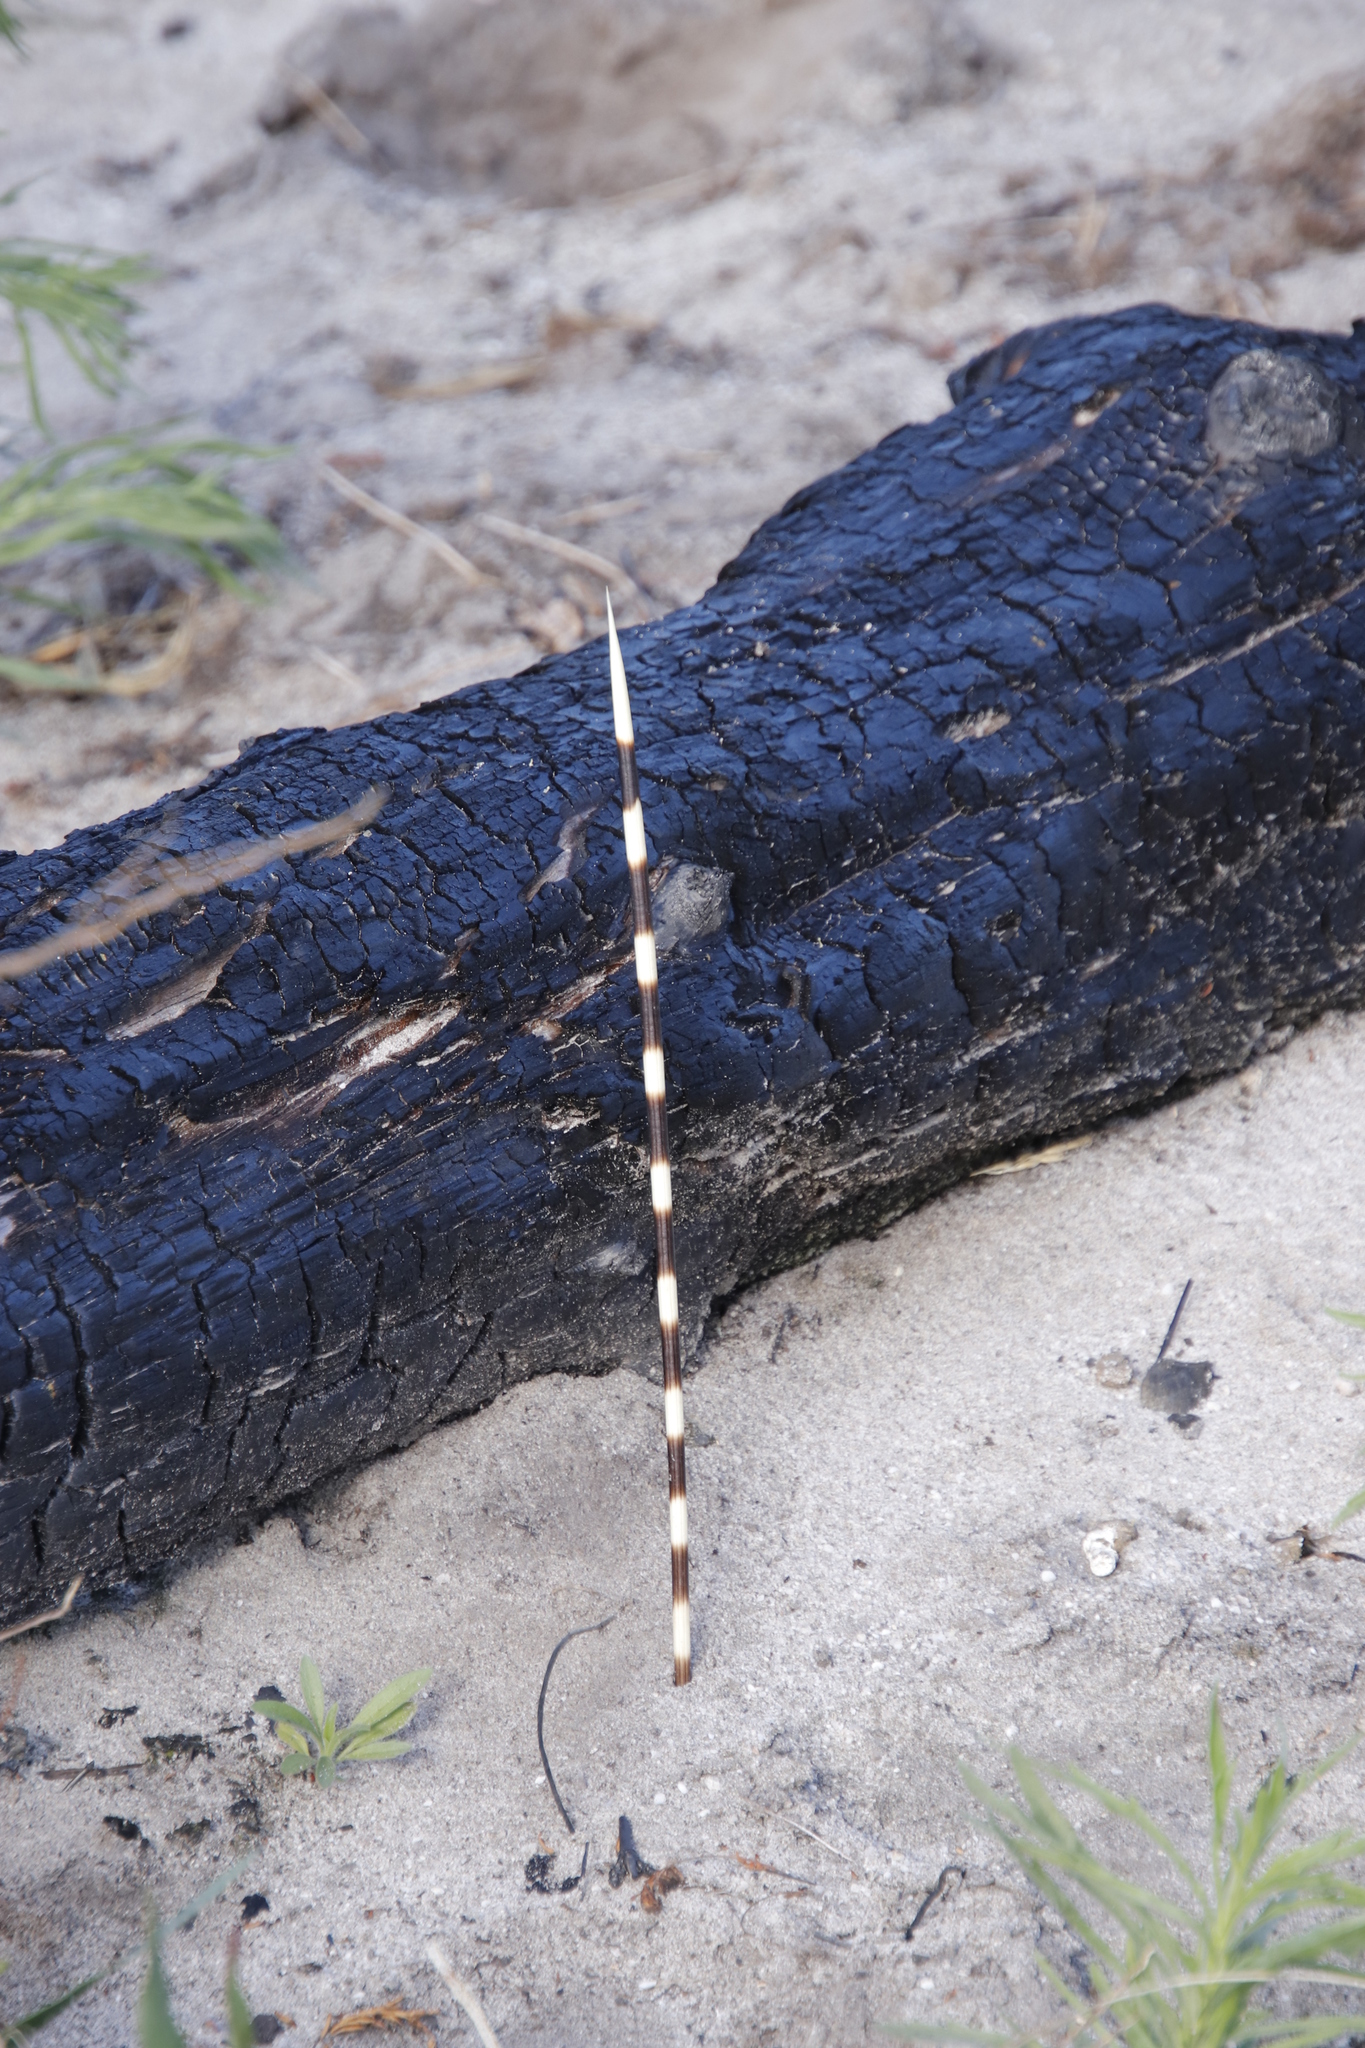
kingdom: Animalia
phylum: Chordata
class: Mammalia
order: Rodentia
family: Hystricidae
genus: Hystrix
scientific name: Hystrix africaeaustralis
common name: Cape porcupine
